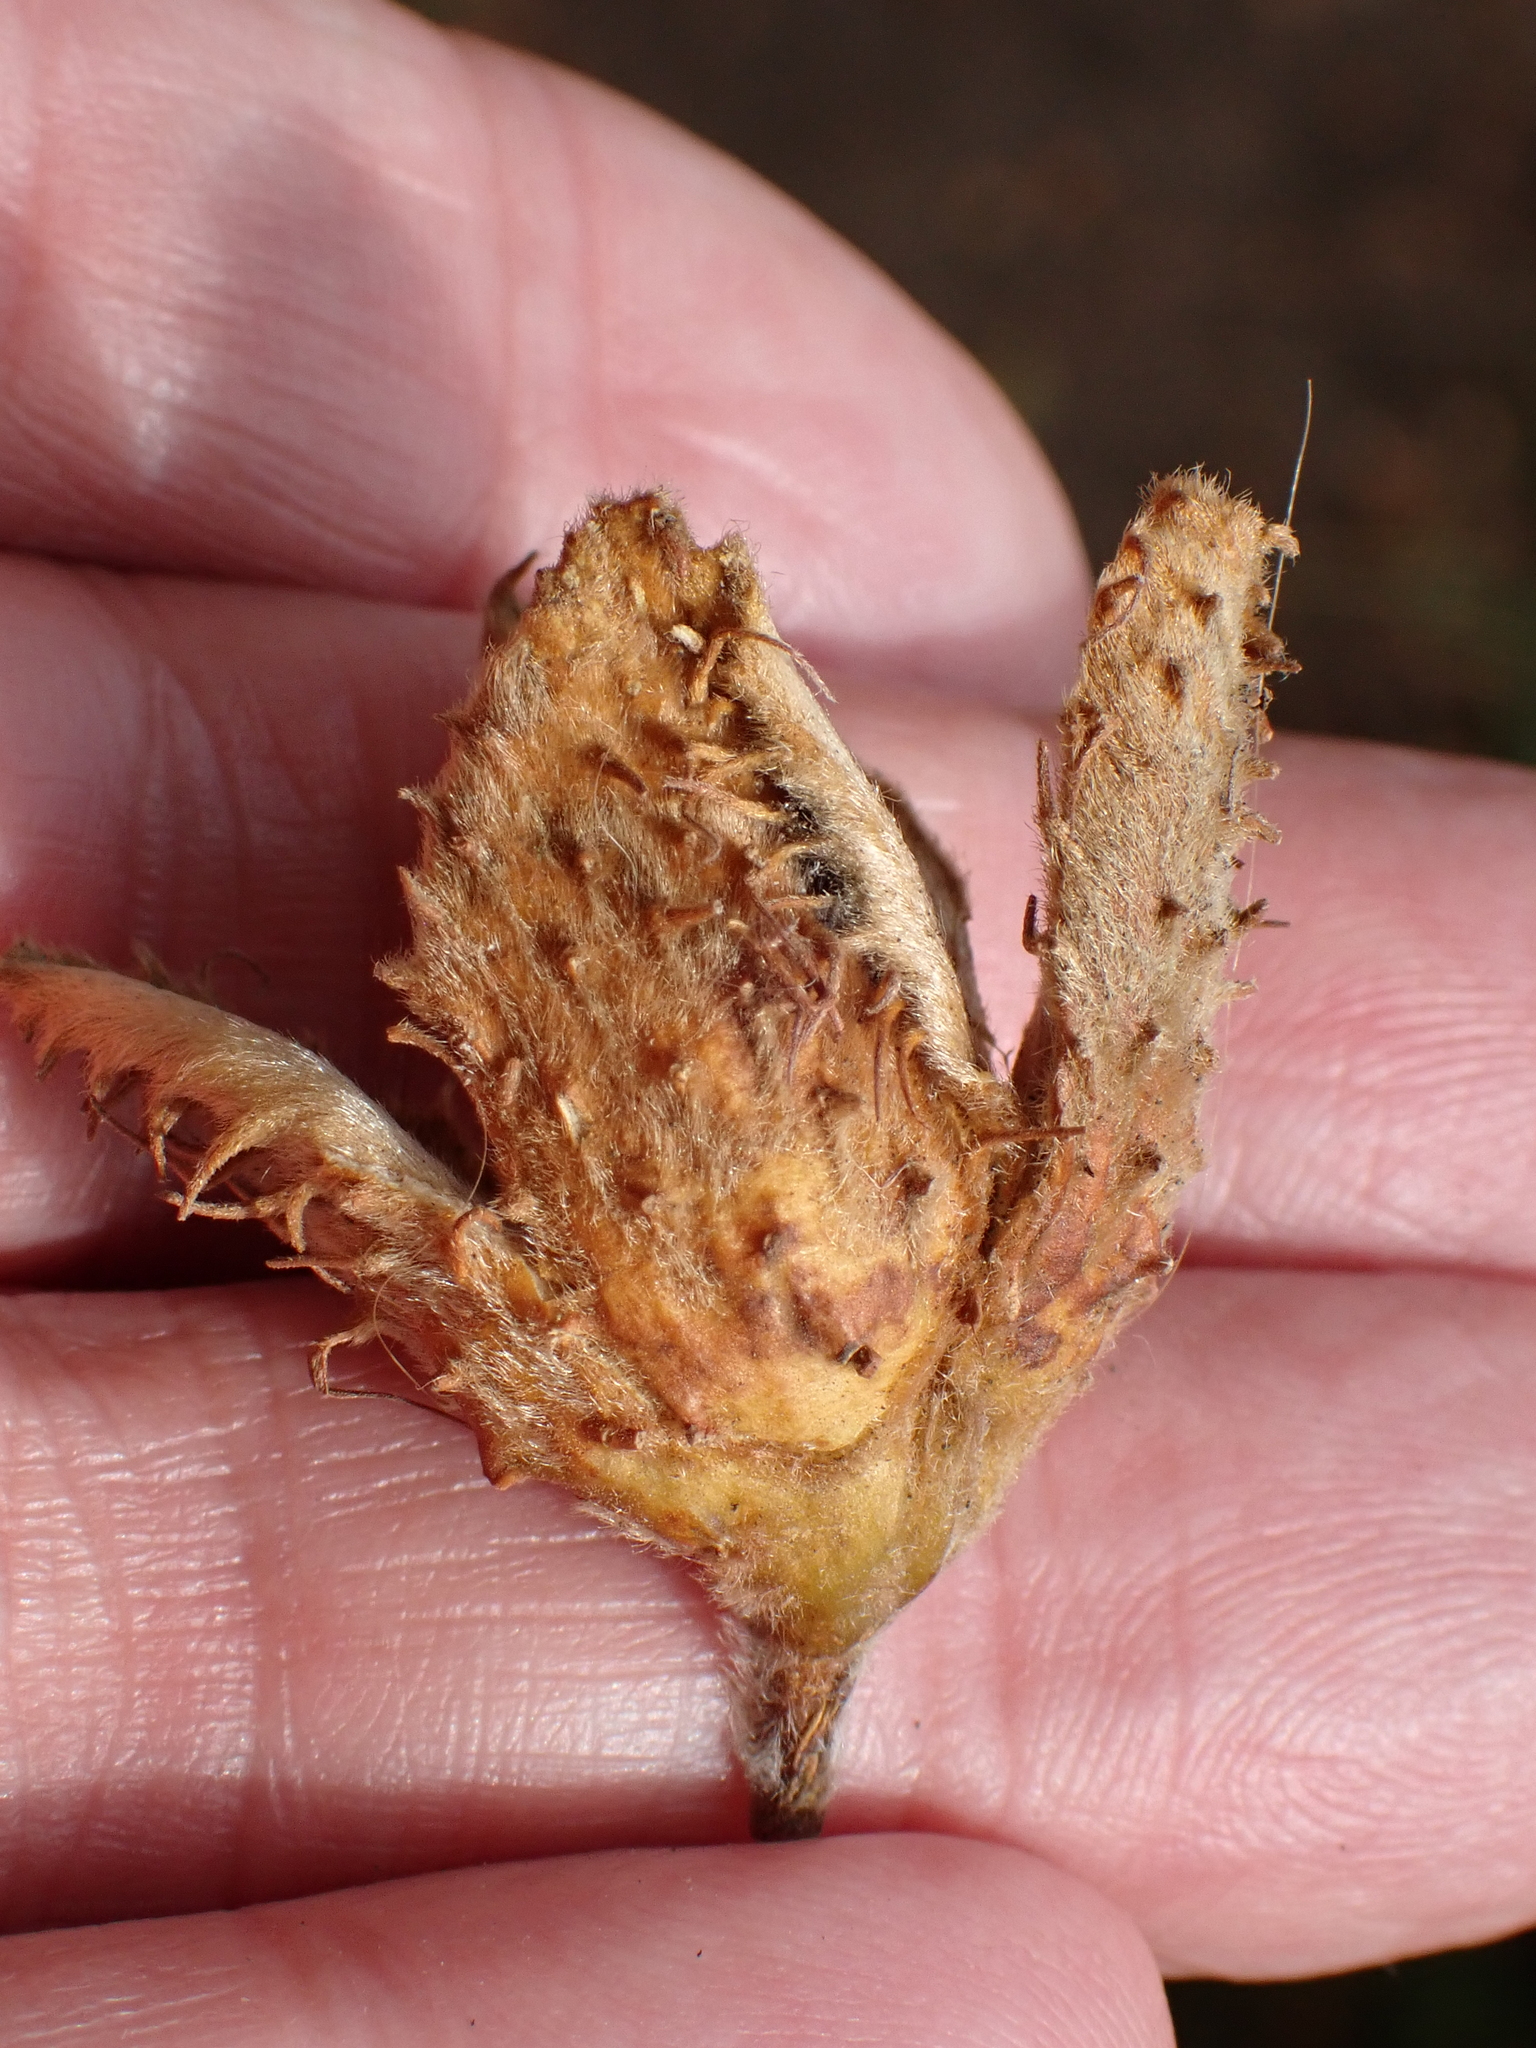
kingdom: Plantae
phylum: Tracheophyta
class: Magnoliopsida
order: Fagales
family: Fagaceae
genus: Fagus
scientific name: Fagus sylvatica
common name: Beech
